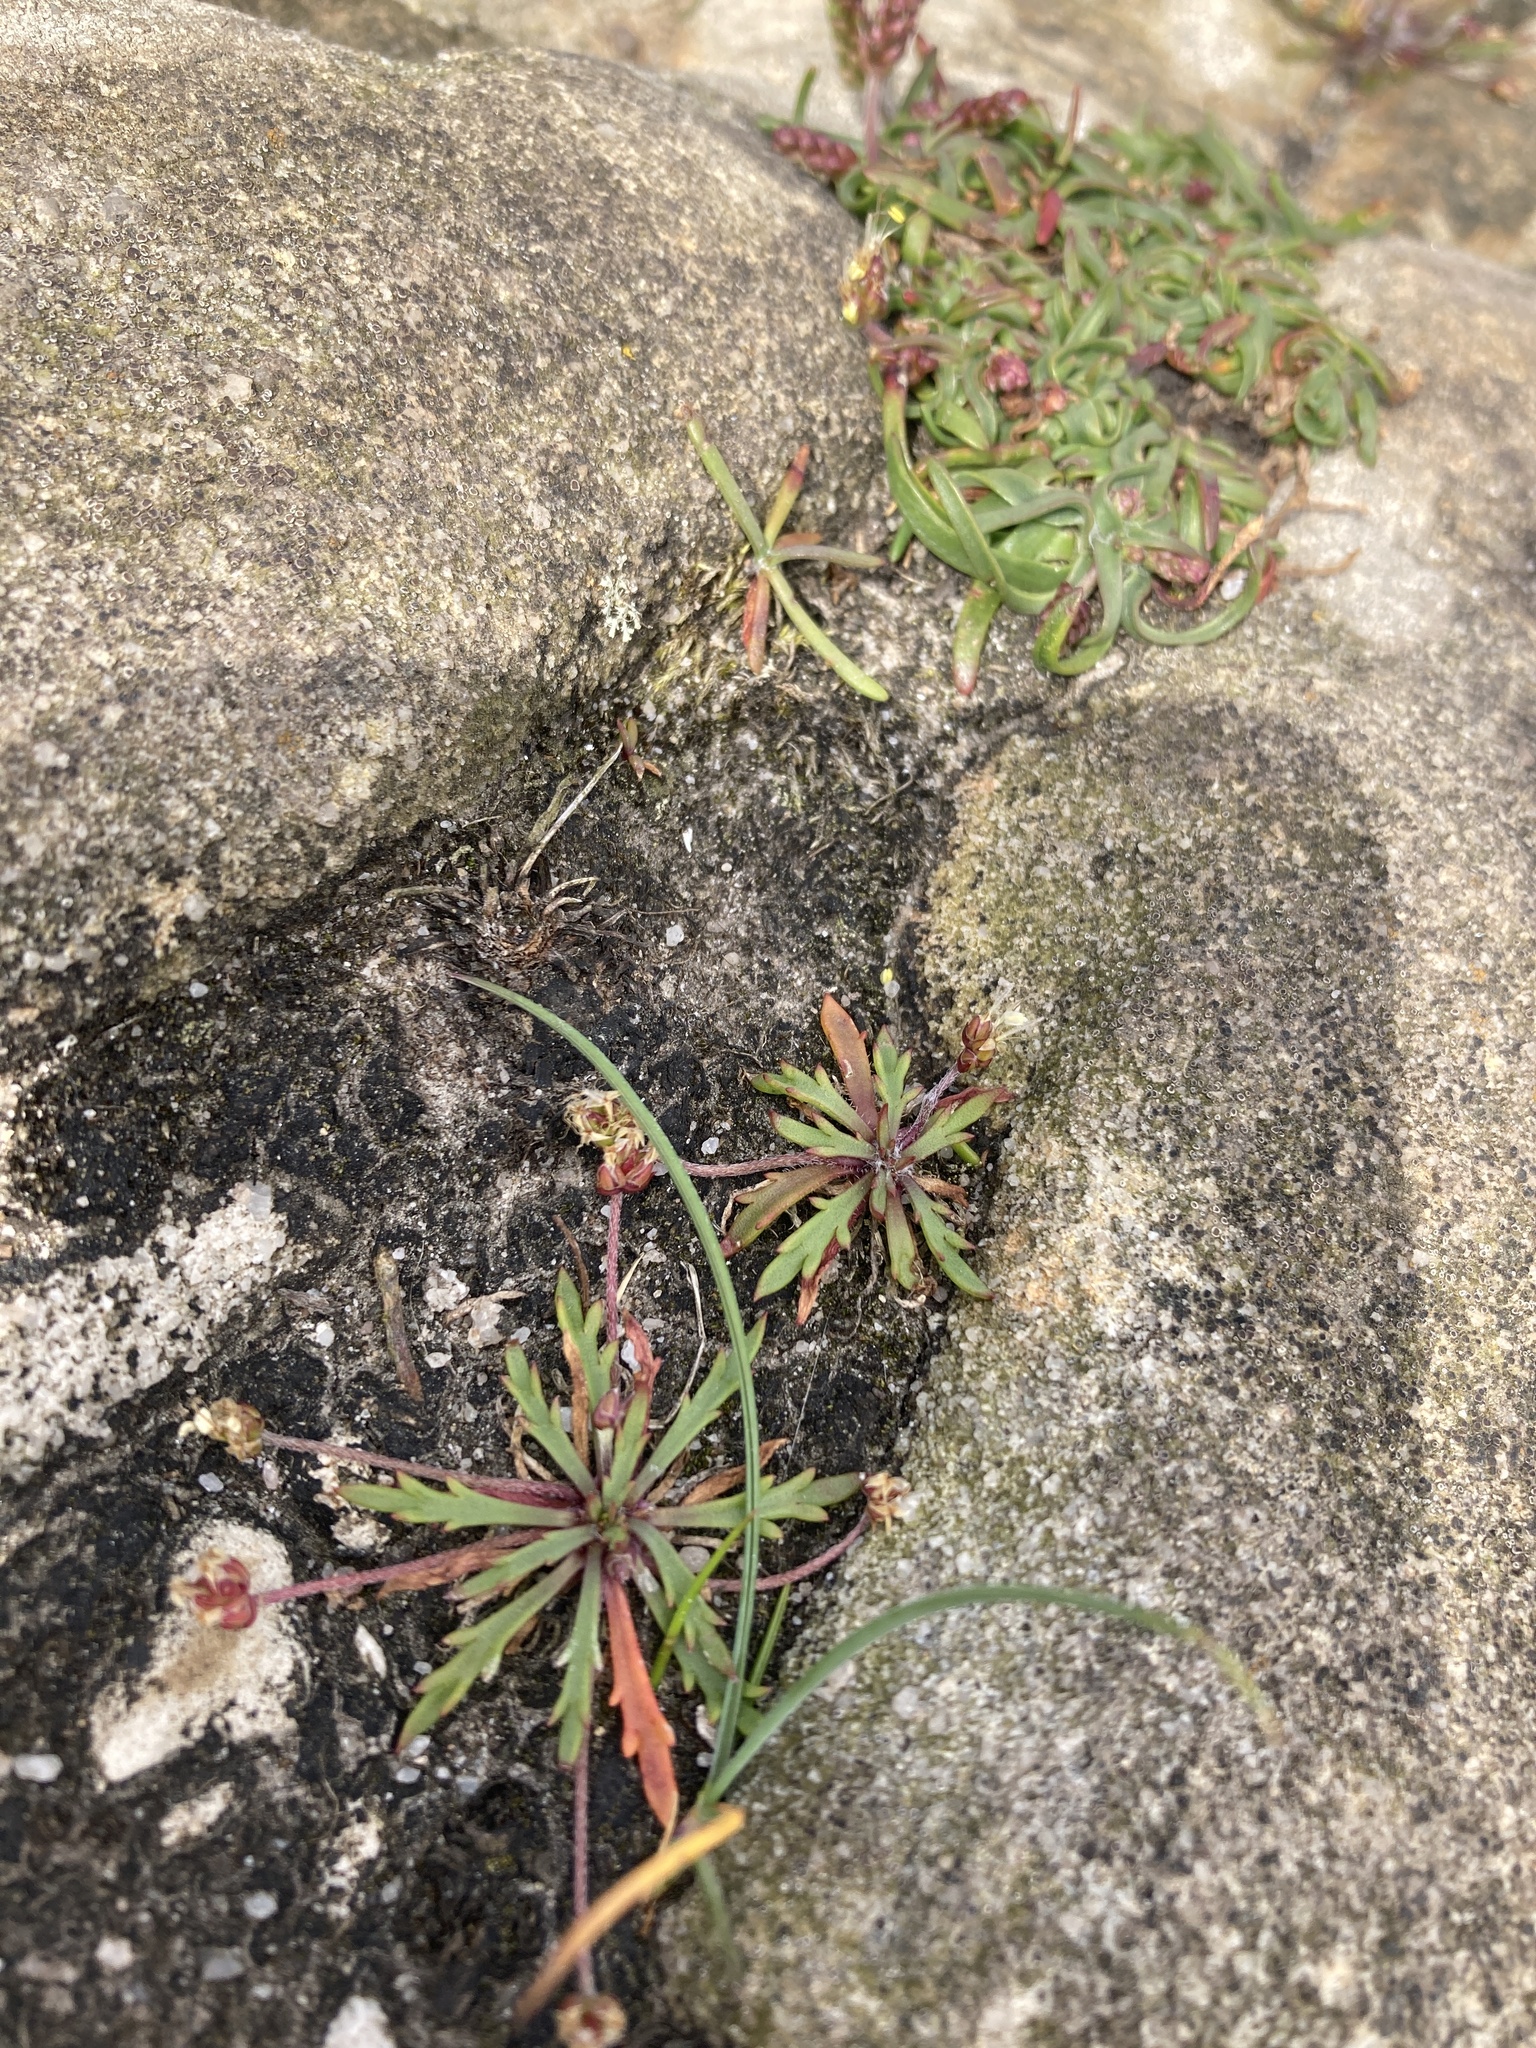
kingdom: Plantae
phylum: Tracheophyta
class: Magnoliopsida
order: Lamiales
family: Plantaginaceae
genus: Plantago
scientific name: Plantago coronopus
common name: Buck's-horn plantain
